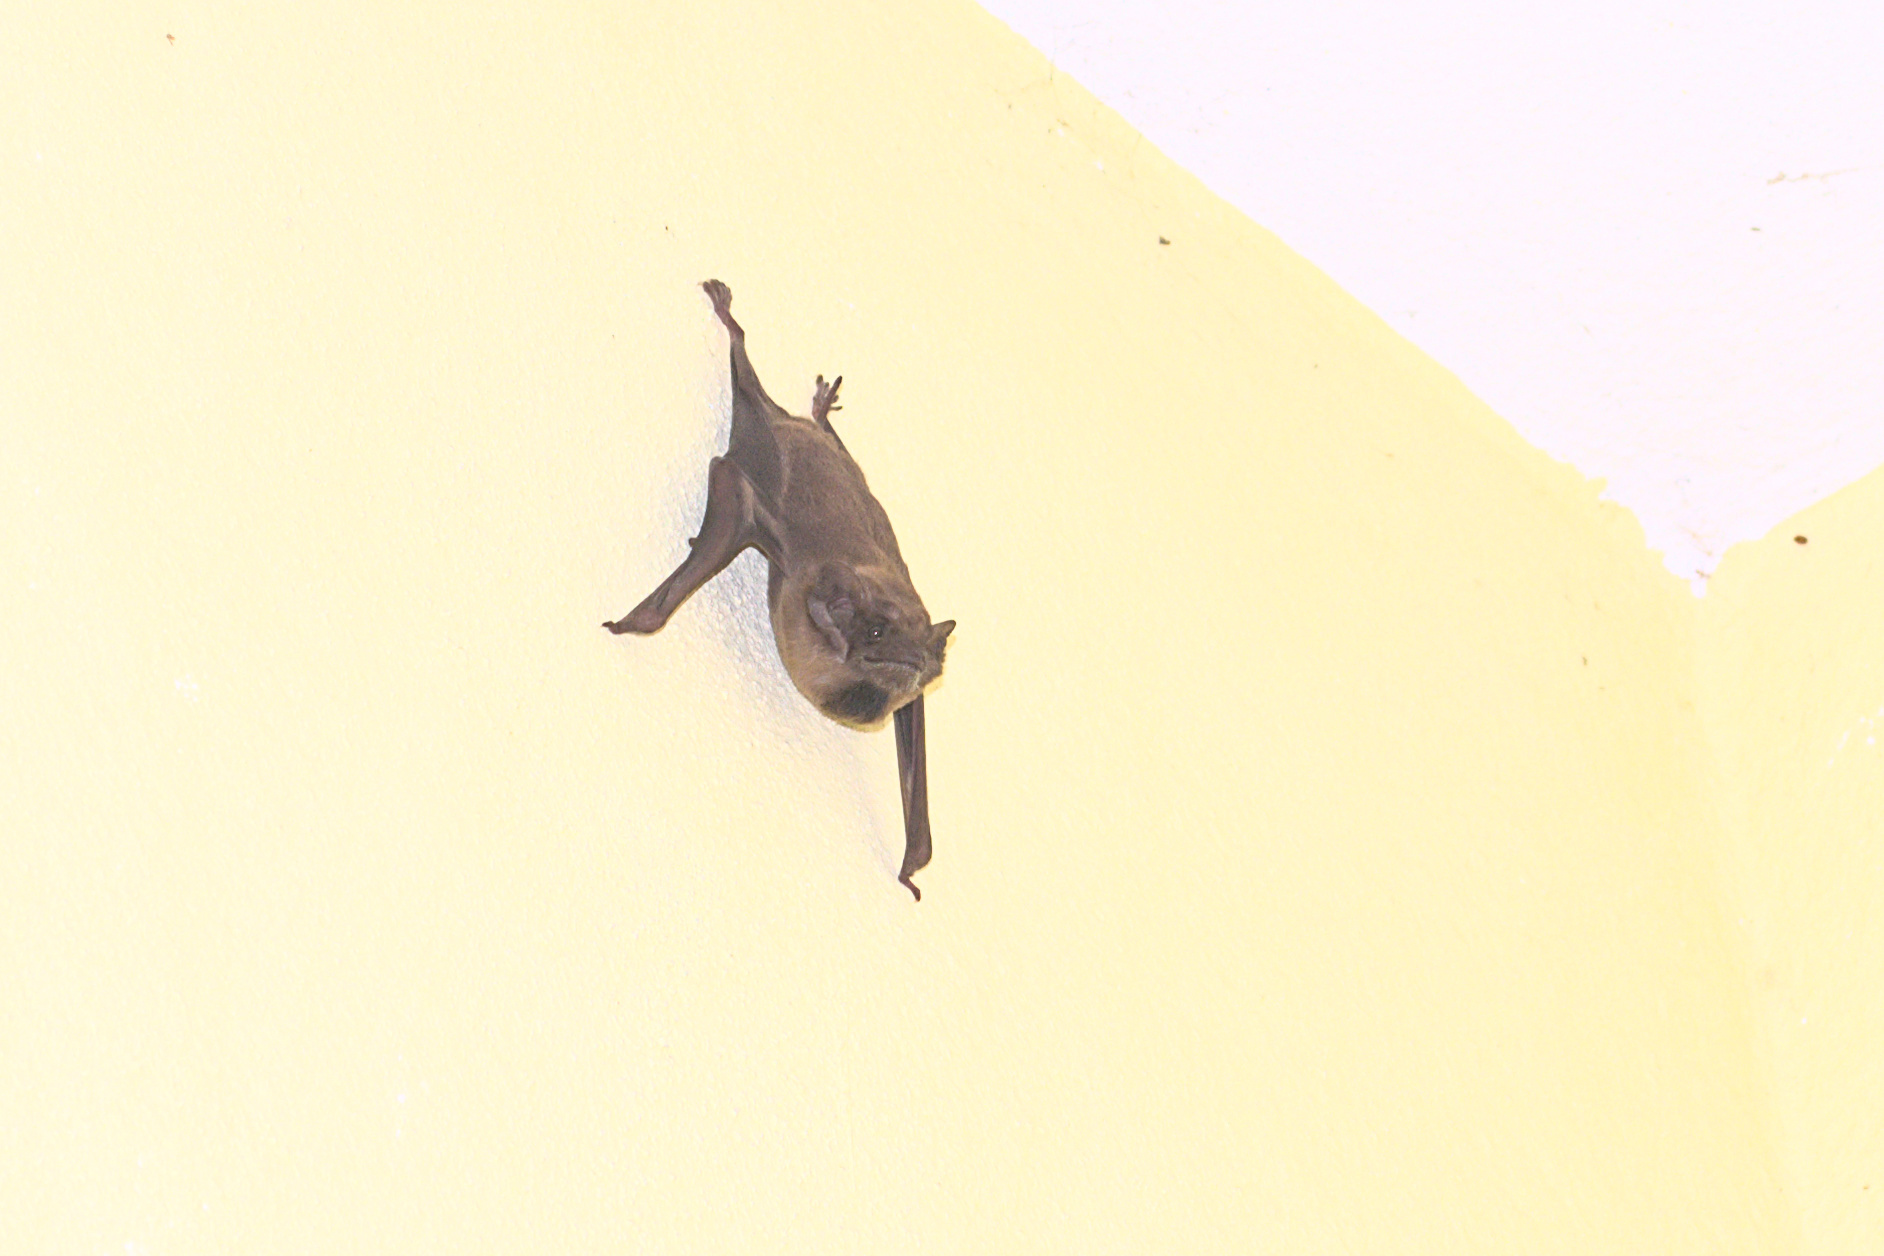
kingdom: Animalia
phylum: Chordata
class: Mammalia
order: Chiroptera
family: Emballonuridae
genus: Taphozous
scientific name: Taphozous melanopogon
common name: Black-bearded tomb bat
